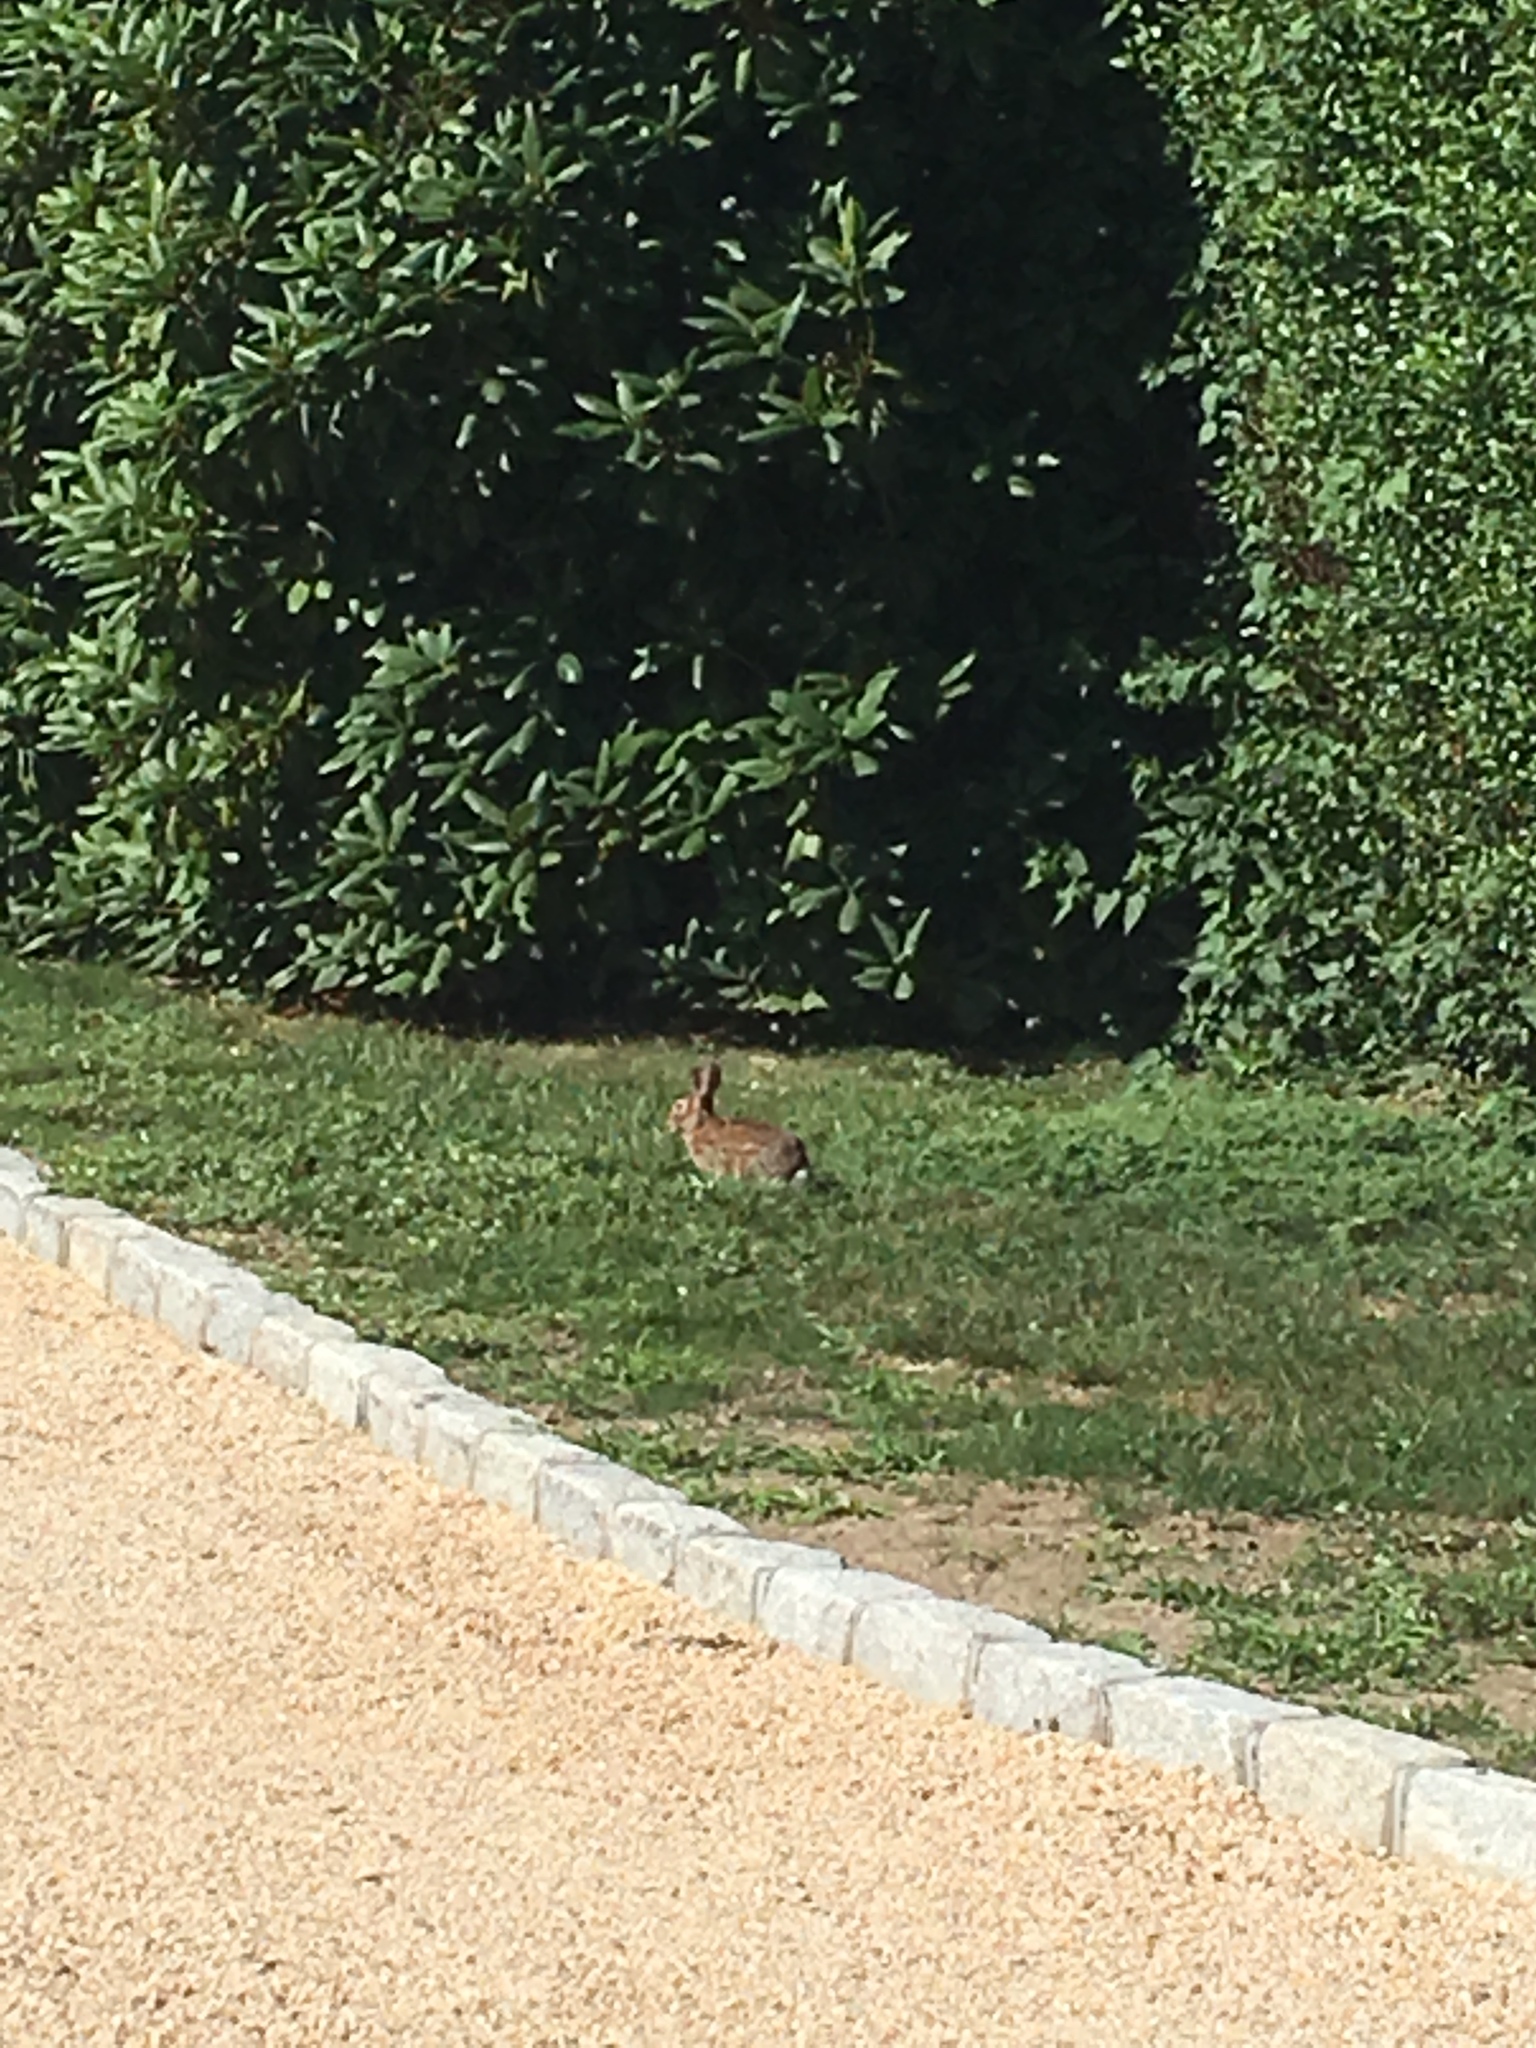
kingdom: Animalia
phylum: Chordata
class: Mammalia
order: Lagomorpha
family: Leporidae
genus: Sylvilagus
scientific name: Sylvilagus floridanus
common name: Eastern cottontail
